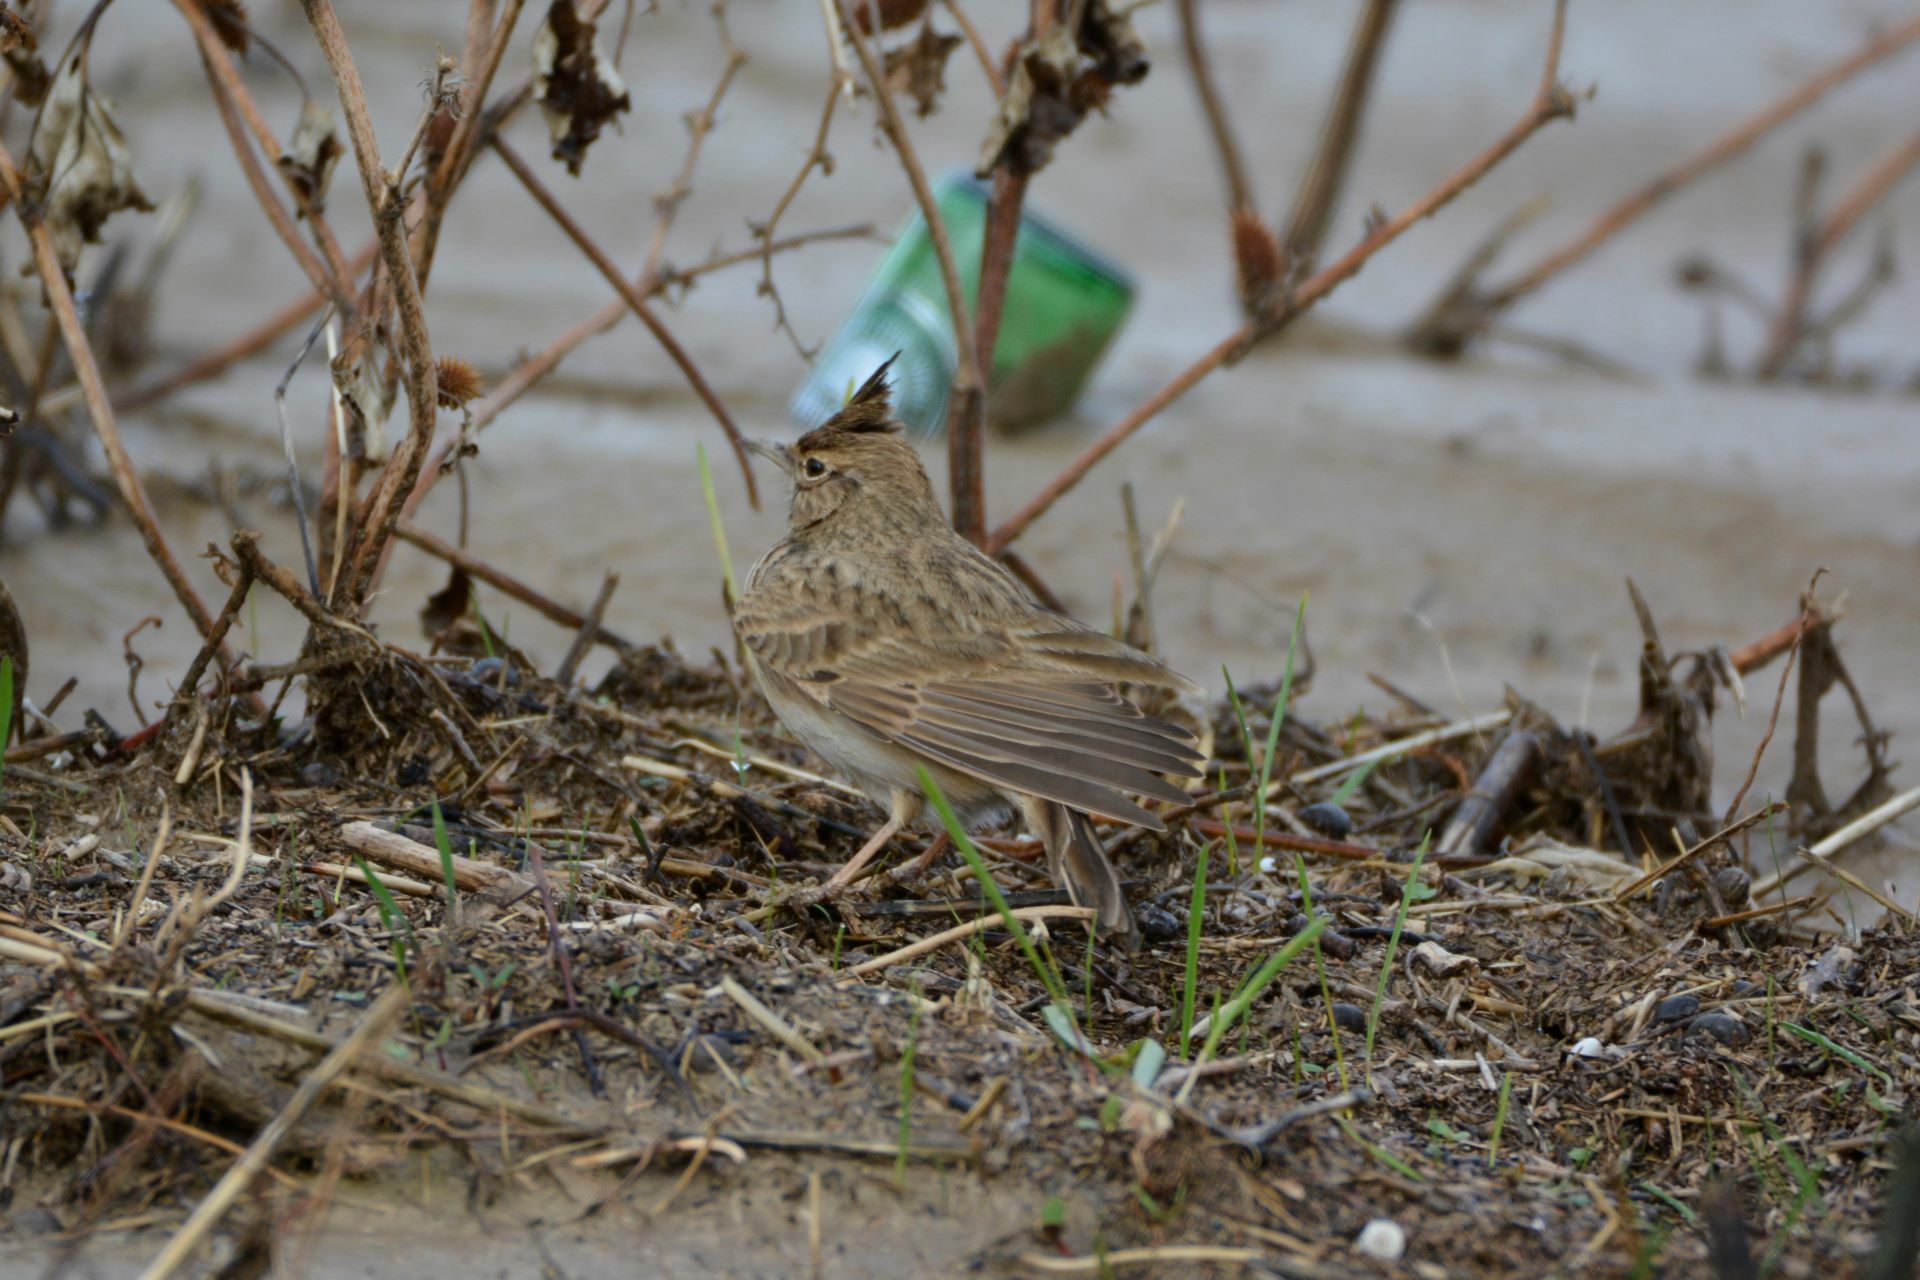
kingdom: Animalia
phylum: Chordata
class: Aves
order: Passeriformes
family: Alaudidae
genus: Galerida
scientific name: Galerida cristata
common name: Crested lark
